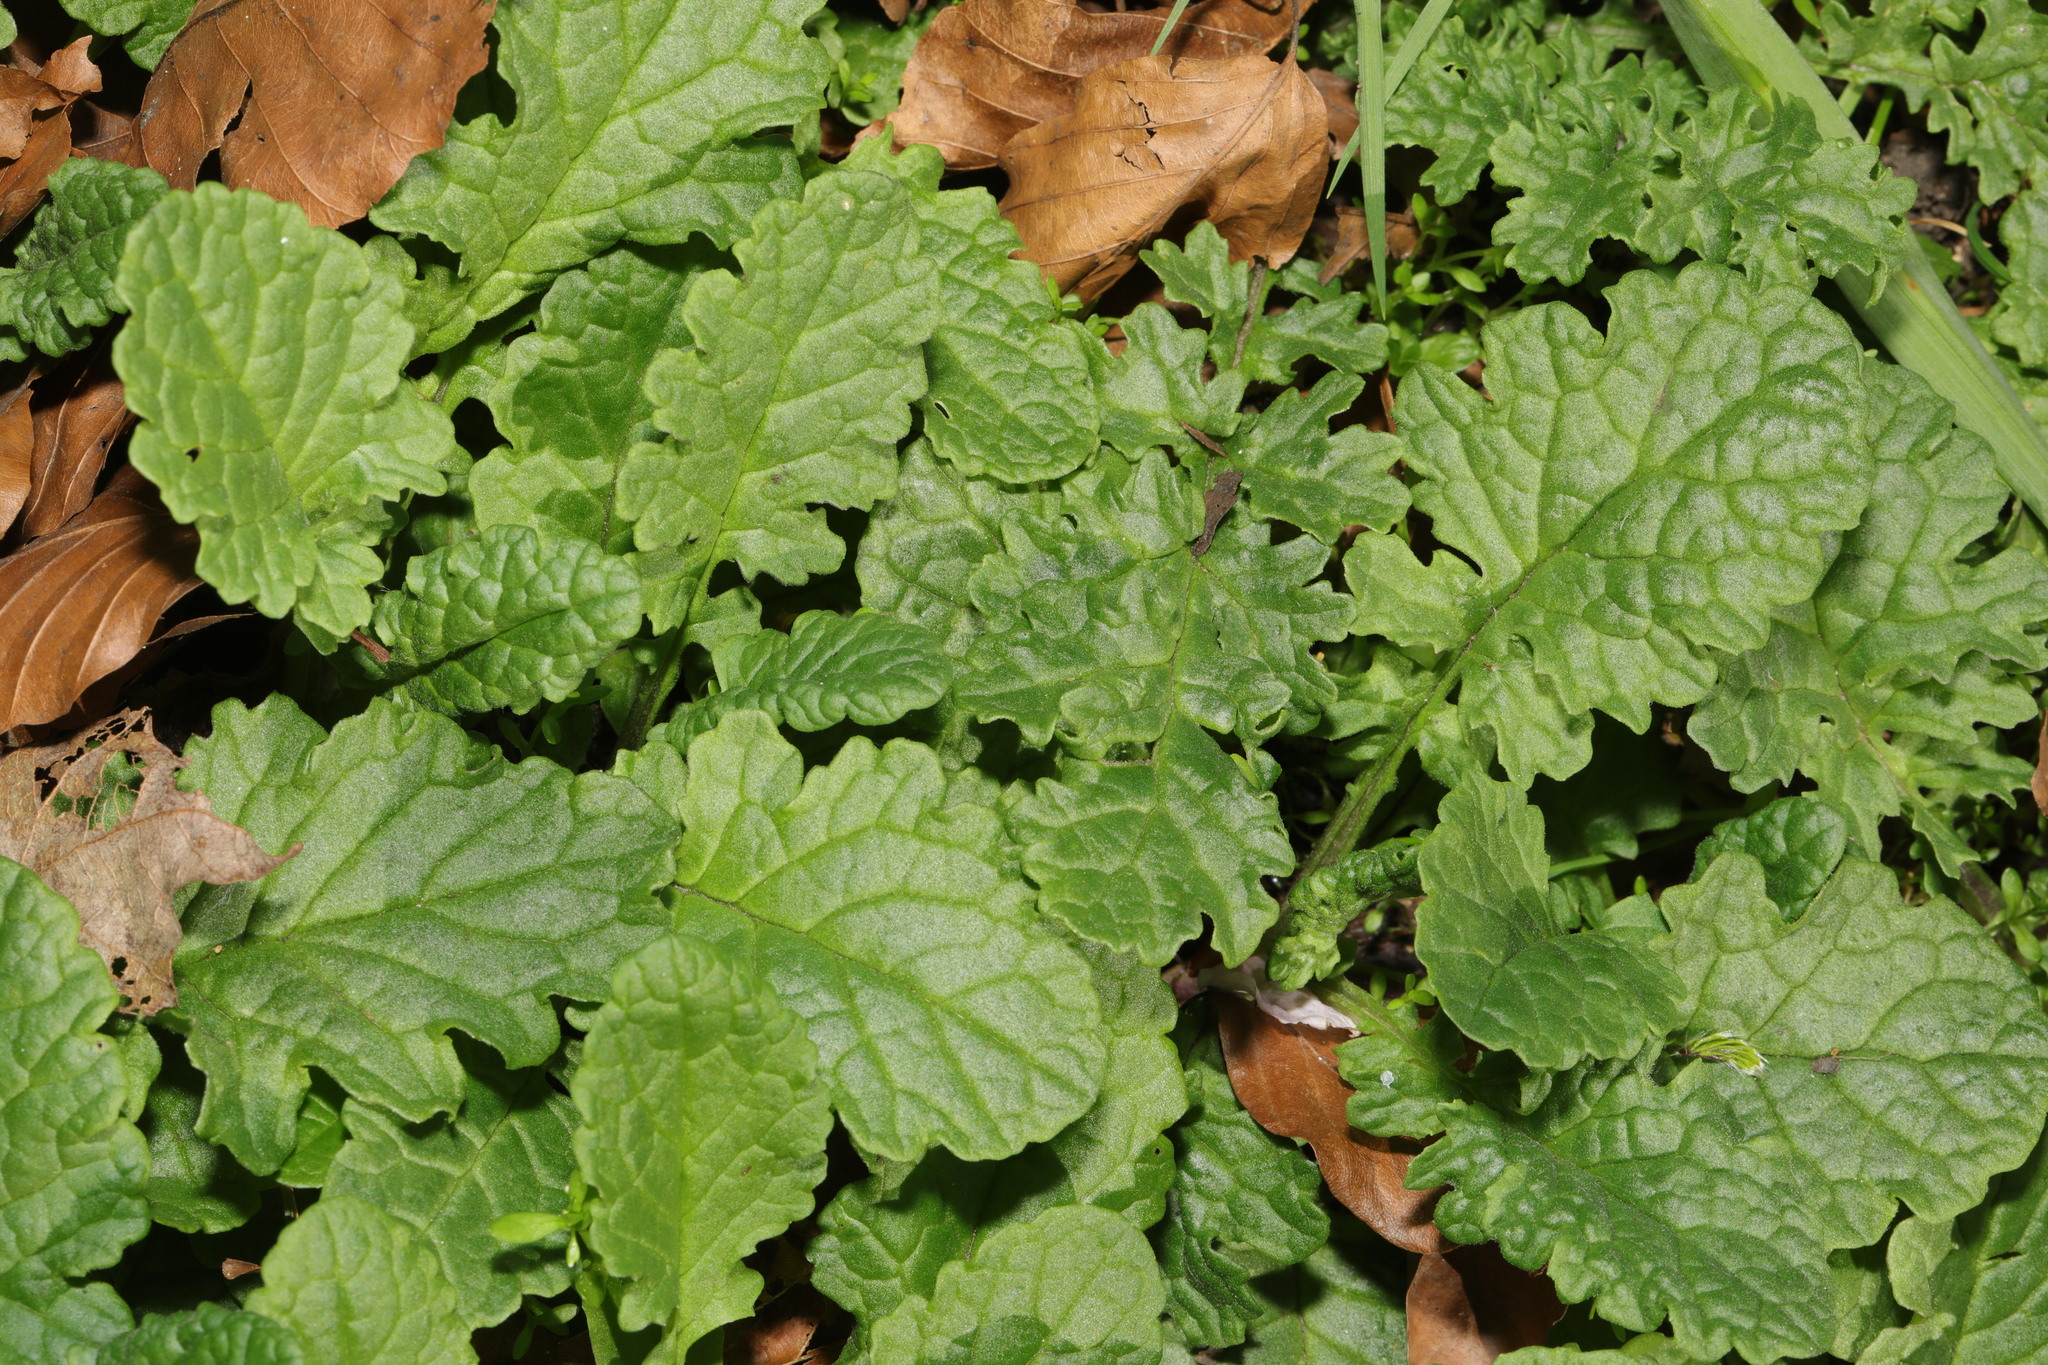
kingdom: Plantae
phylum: Tracheophyta
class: Magnoliopsida
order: Asterales
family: Asteraceae
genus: Jacobaea
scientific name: Jacobaea vulgaris
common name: Stinking willie
